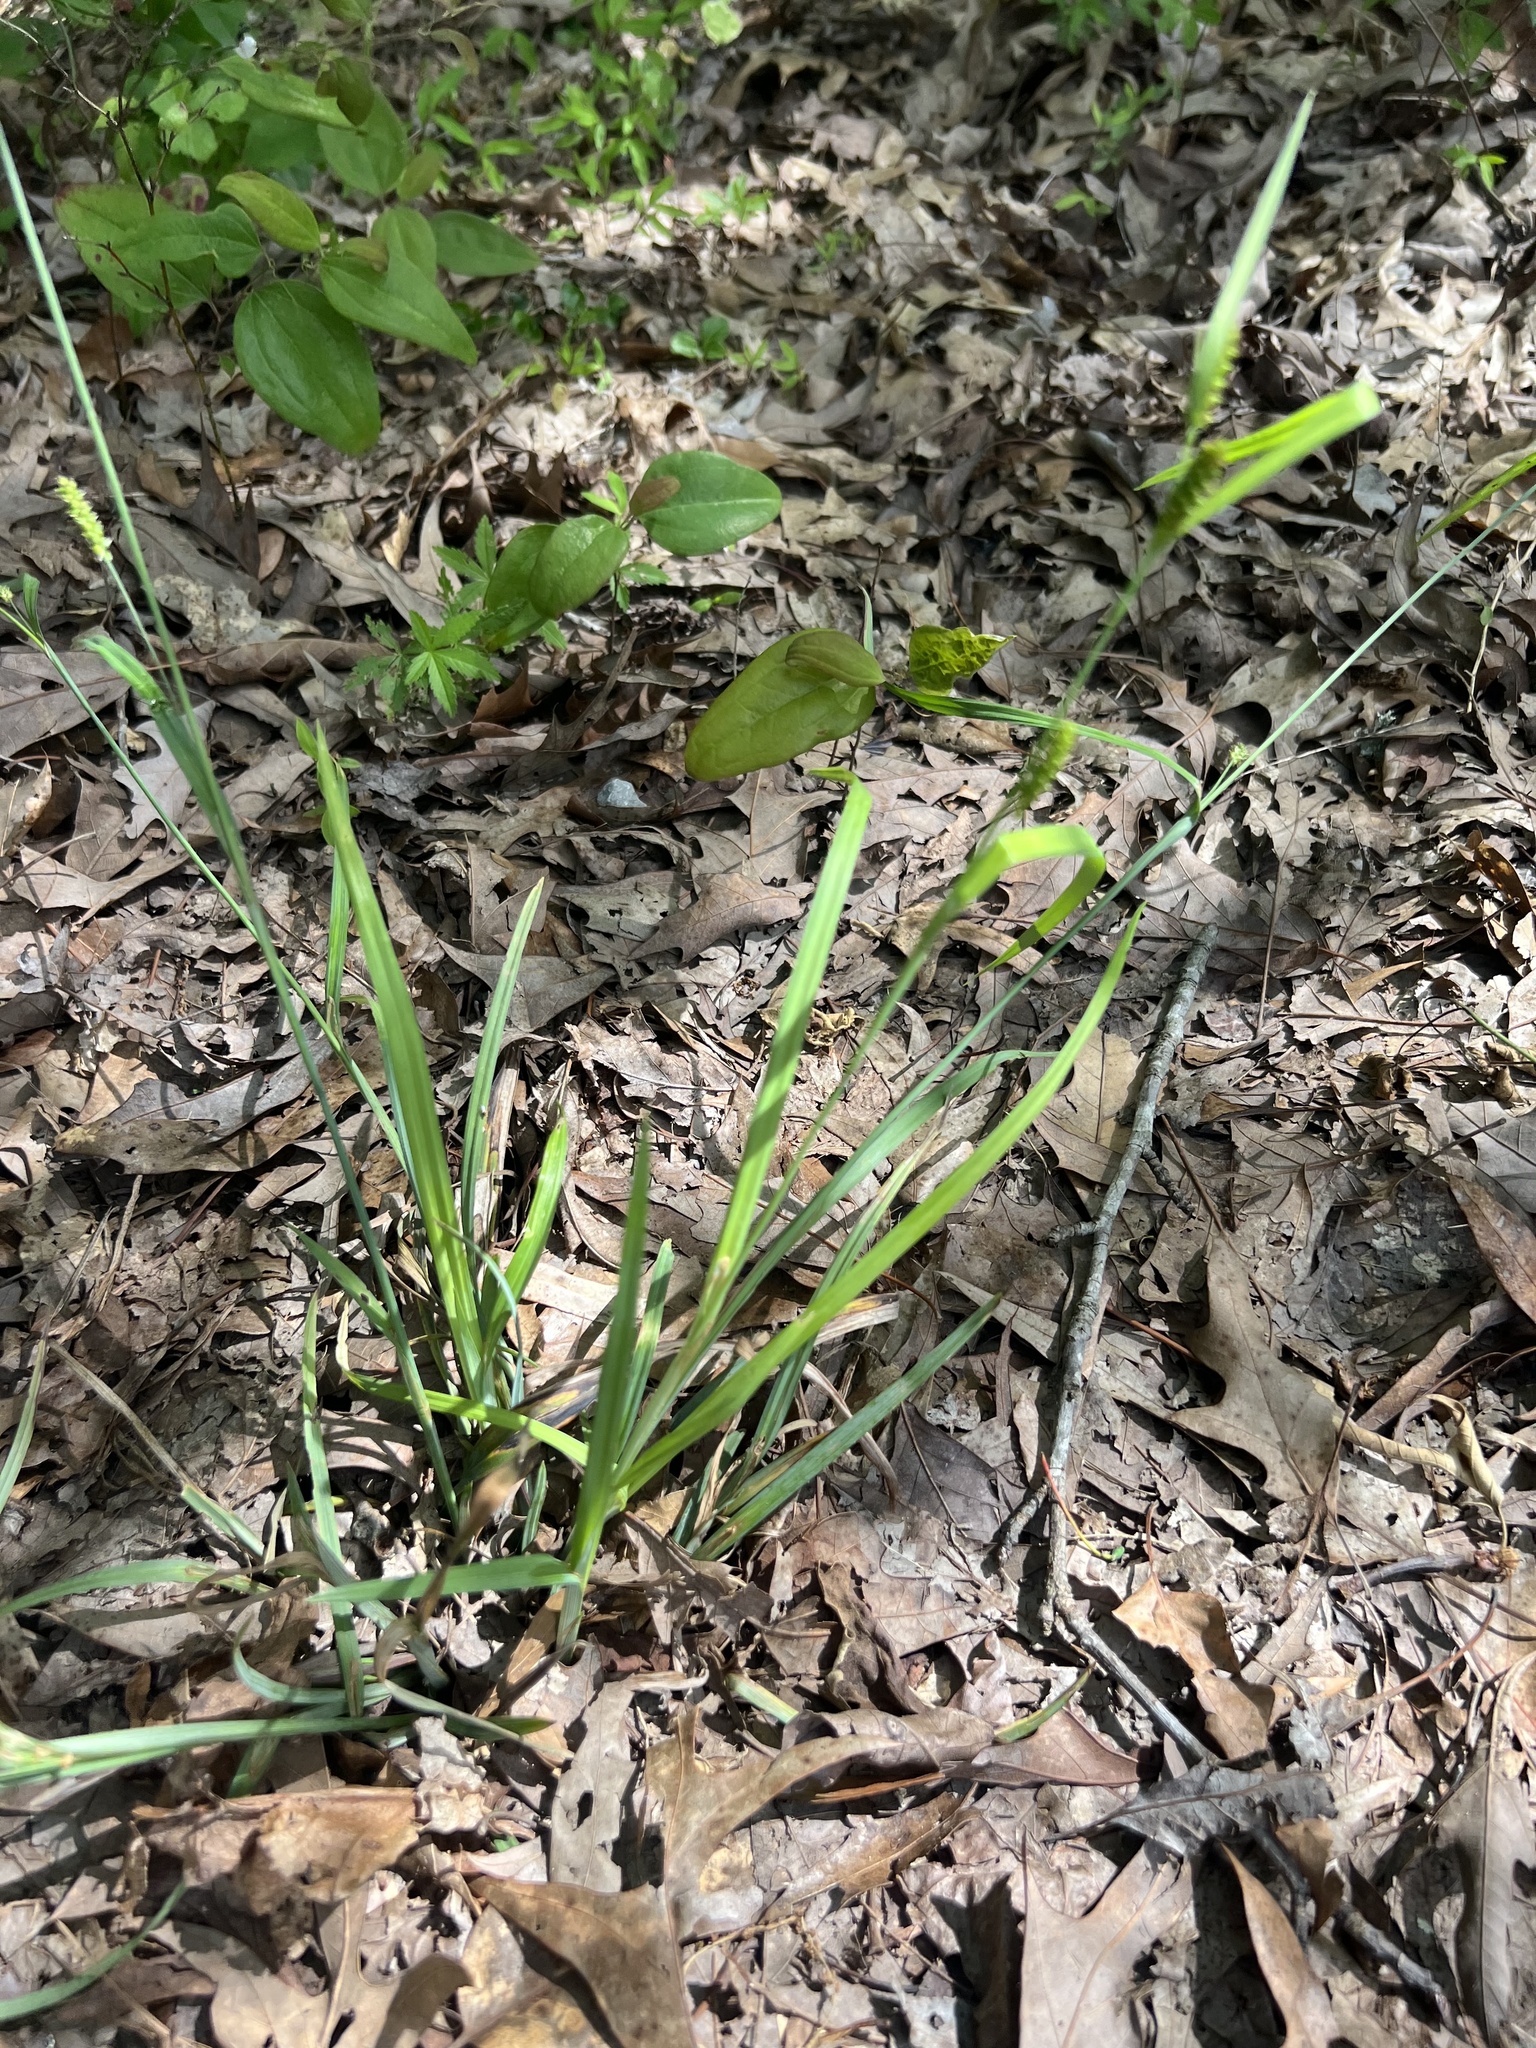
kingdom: Plantae
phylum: Tracheophyta
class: Liliopsida
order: Poales
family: Cyperaceae
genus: Carex
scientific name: Carex granularis
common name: Granular sedge
